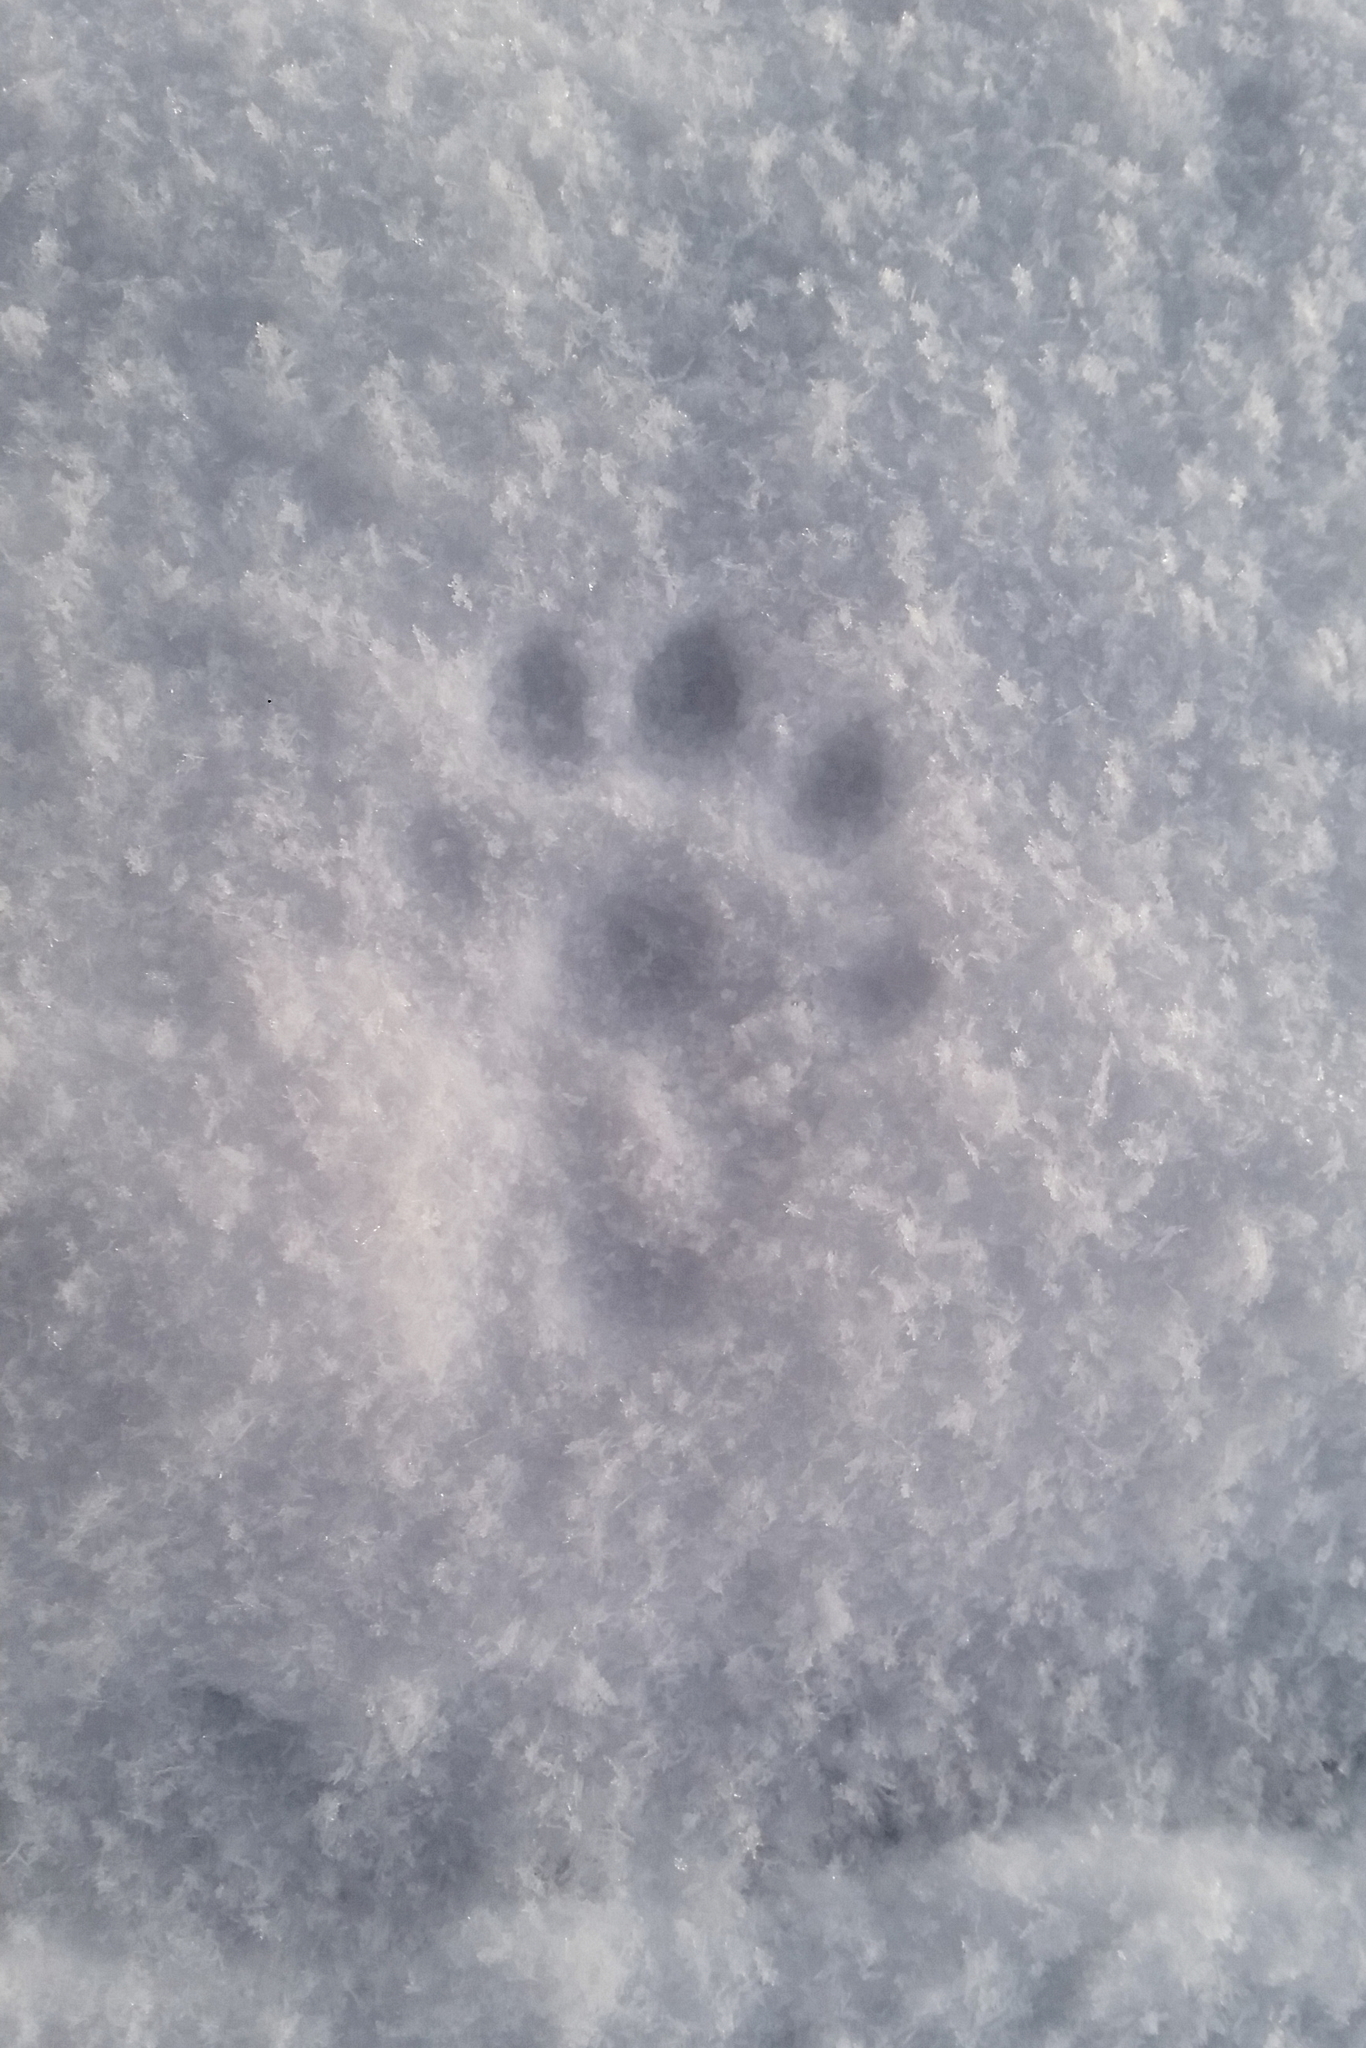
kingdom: Animalia
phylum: Chordata
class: Mammalia
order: Carnivora
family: Mustelidae
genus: Lutra
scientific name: Lutra lutra
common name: European otter
